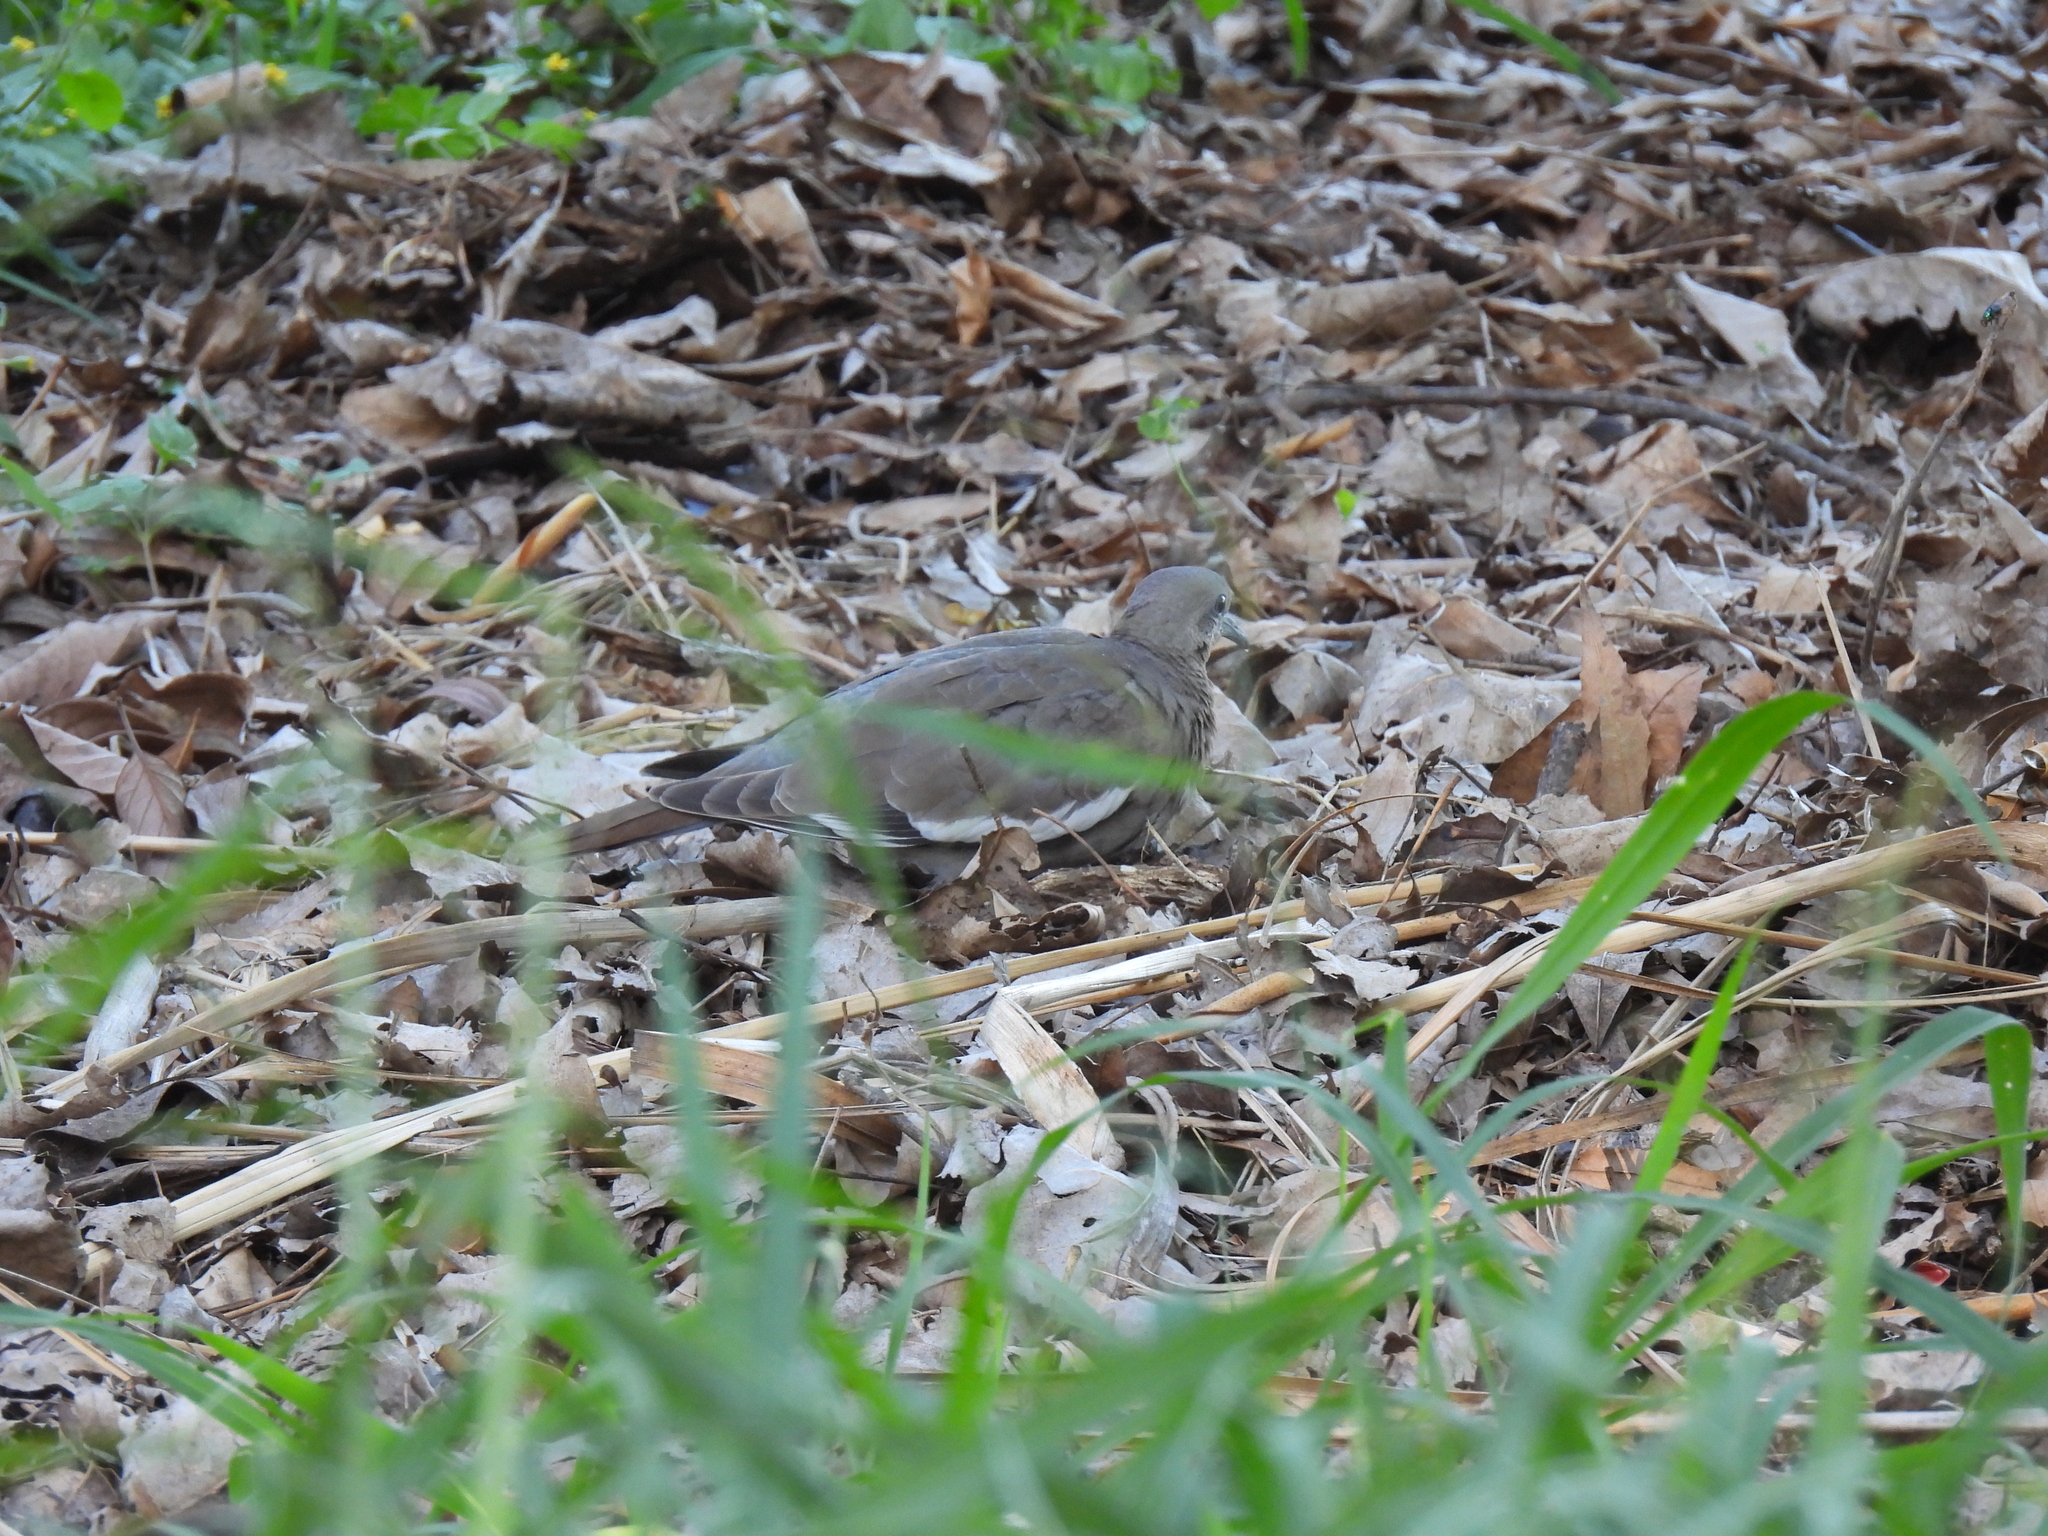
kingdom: Animalia
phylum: Chordata
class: Aves
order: Columbiformes
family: Columbidae
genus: Zenaida
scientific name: Zenaida asiatica
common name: White-winged dove
